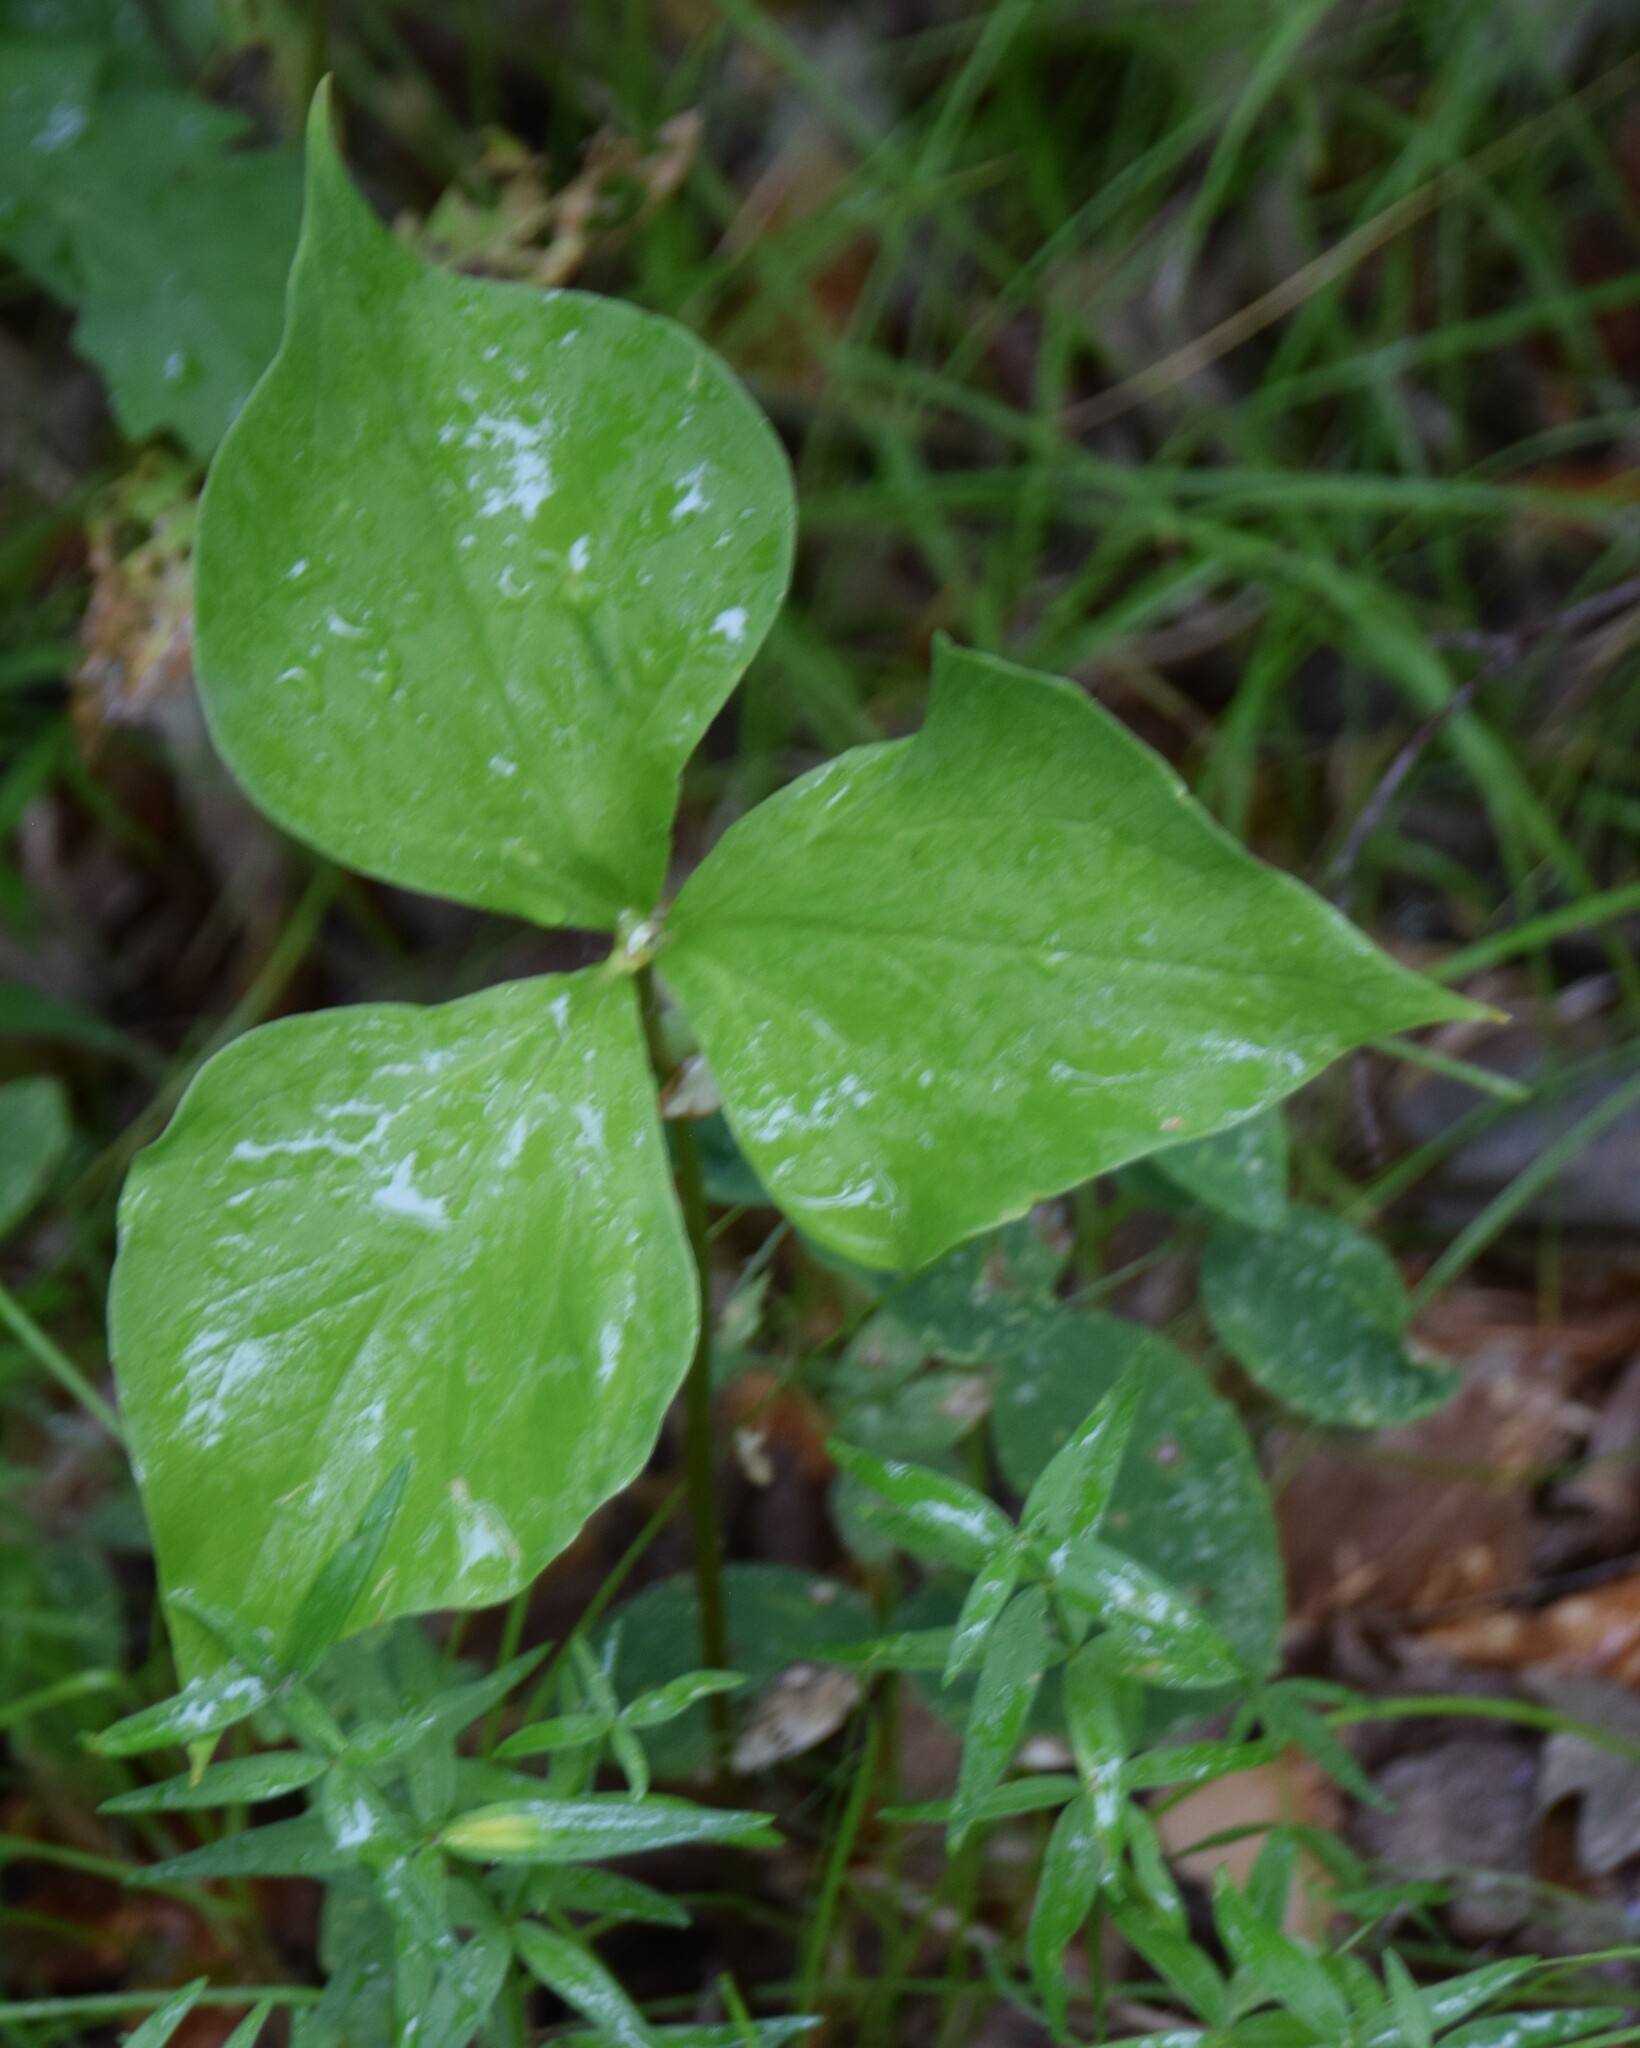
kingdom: Plantae
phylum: Tracheophyta
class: Liliopsida
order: Liliales
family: Melanthiaceae
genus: Trillium
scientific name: Trillium cernuum
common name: Nodding trillium
